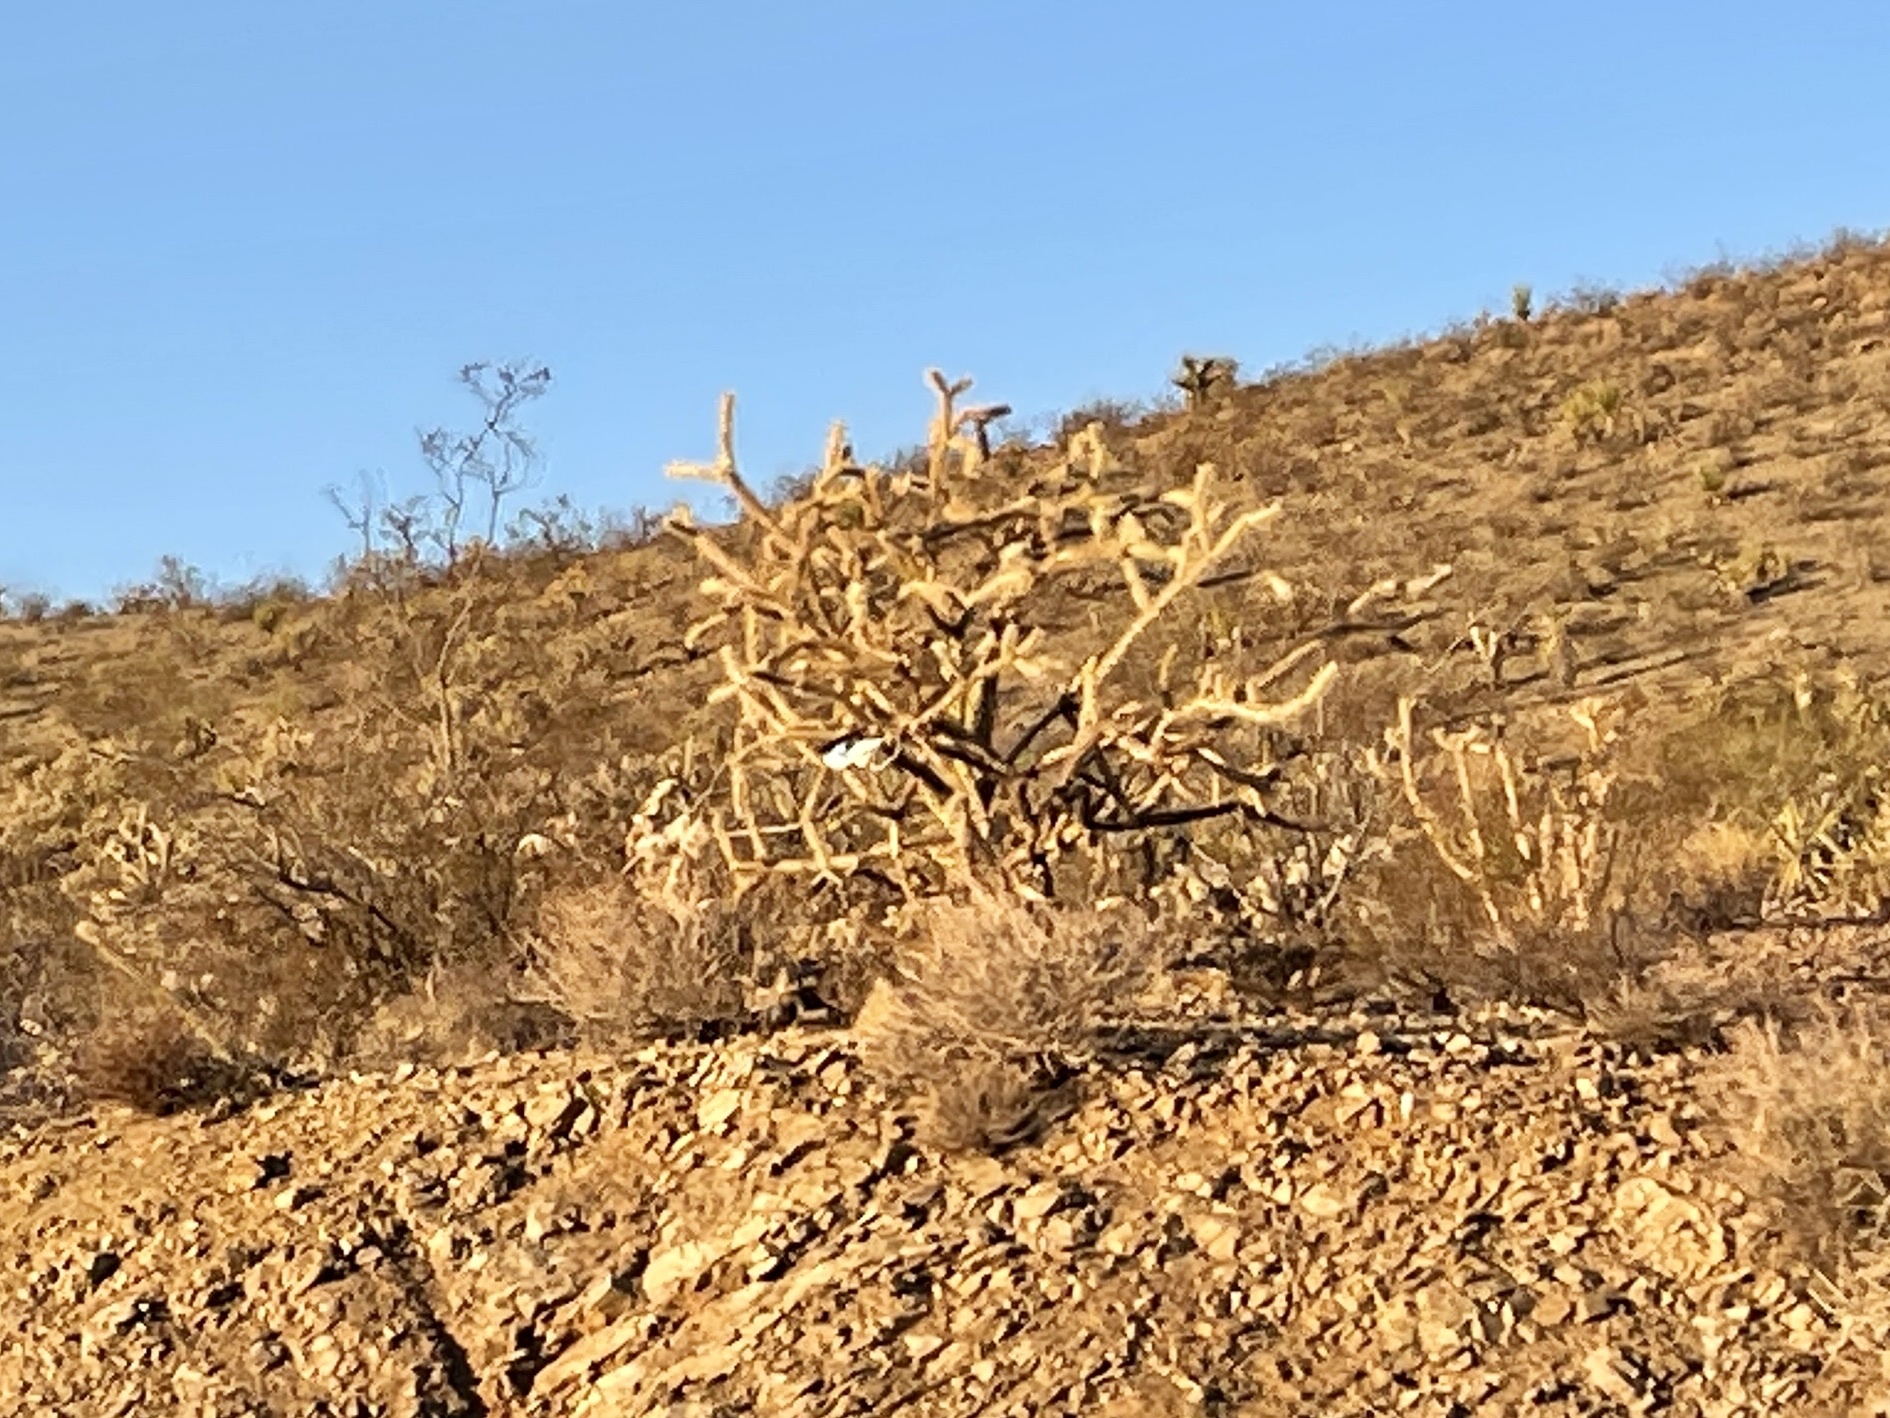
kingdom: Plantae
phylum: Tracheophyta
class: Magnoliopsida
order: Caryophyllales
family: Cactaceae
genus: Cylindropuntia
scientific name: Cylindropuntia acanthocarpa
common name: Buckhorn cholla
